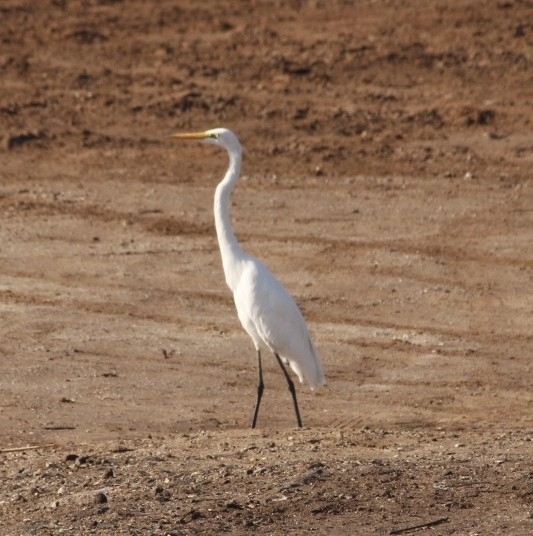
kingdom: Animalia
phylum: Chordata
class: Aves
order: Pelecaniformes
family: Ardeidae
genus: Ardea
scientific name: Ardea alba
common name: Great egret
